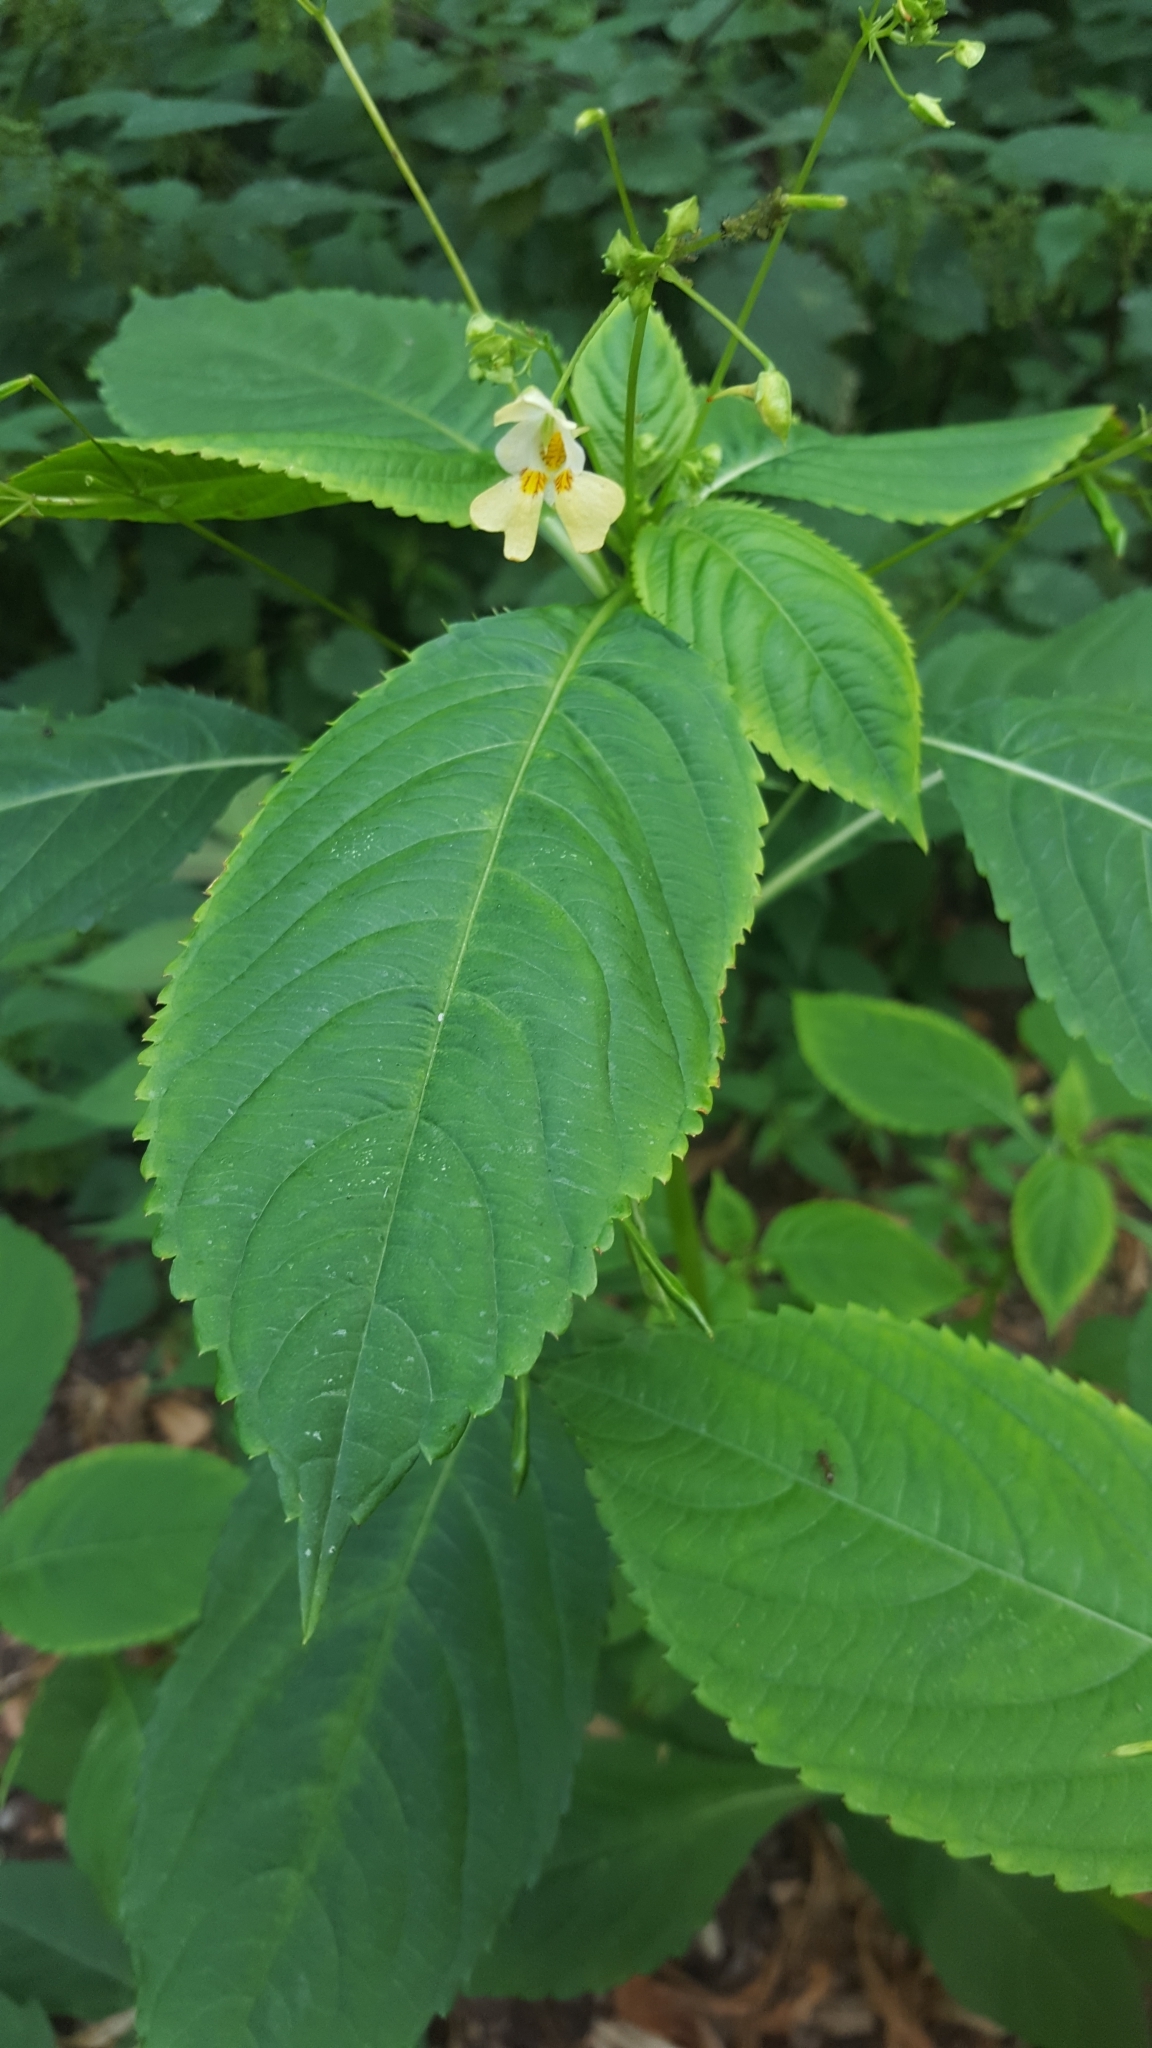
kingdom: Plantae
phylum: Tracheophyta
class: Magnoliopsida
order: Ericales
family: Balsaminaceae
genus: Impatiens
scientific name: Impatiens parviflora
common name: Small balsam
